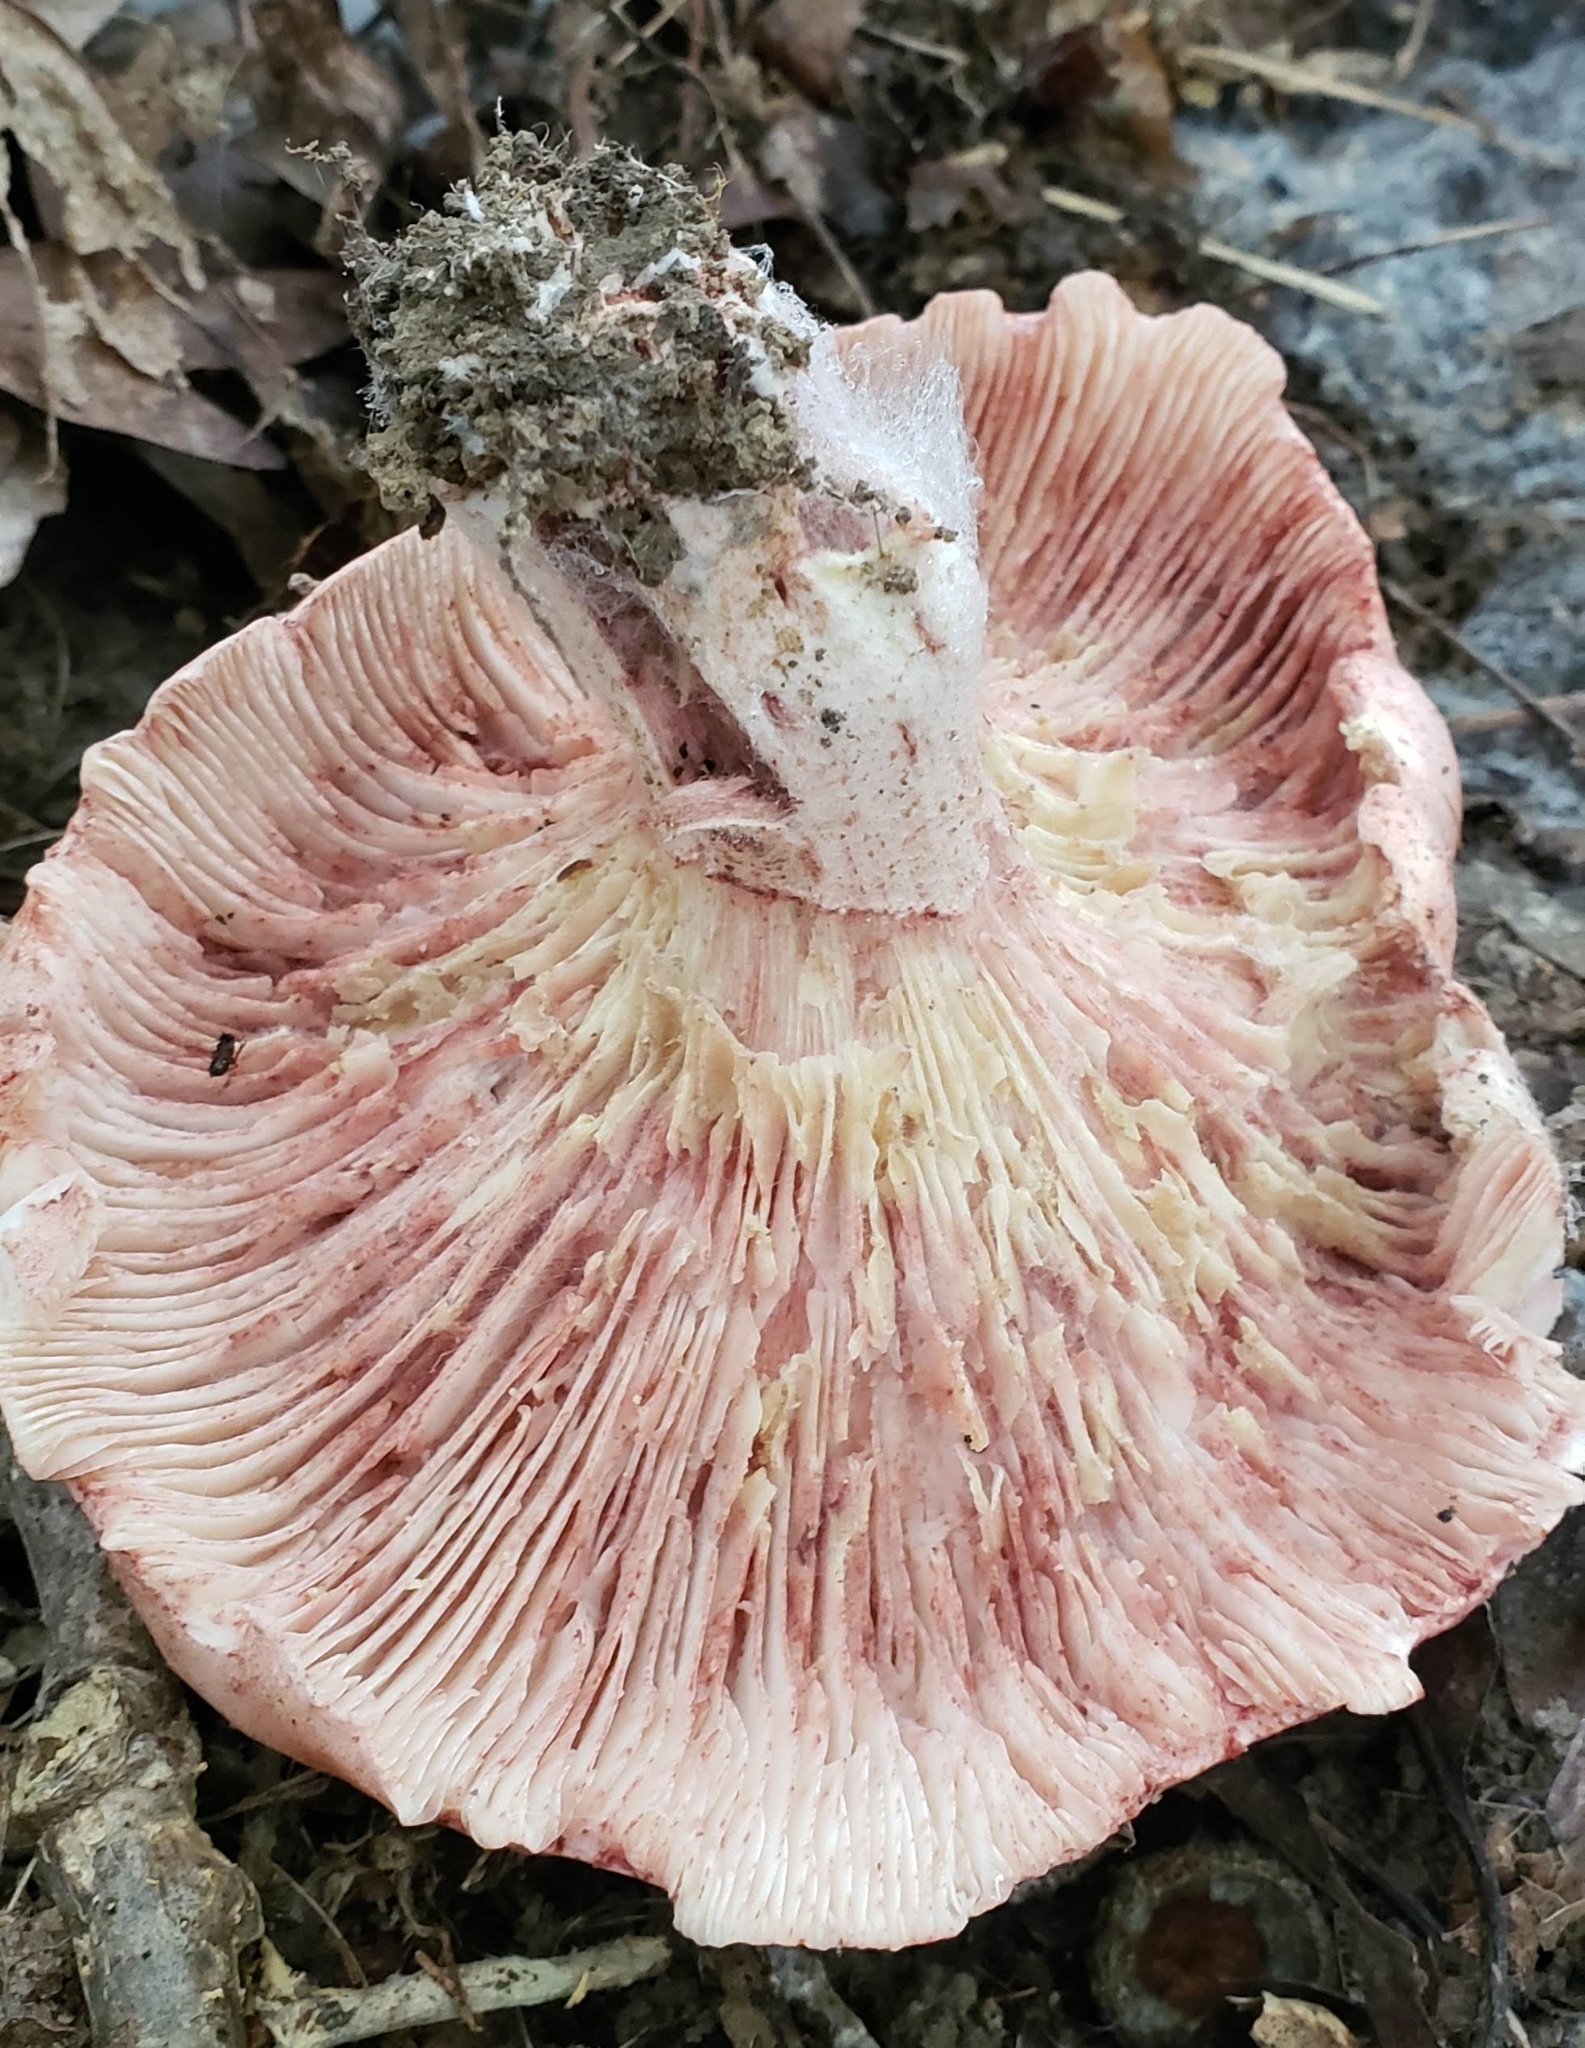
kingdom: Fungi
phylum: Basidiomycota
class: Agaricomycetes
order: Agaricales
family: Hygrophoraceae
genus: Hygrophorus
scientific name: Hygrophorus russula
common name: Pinkmottle woodwax
